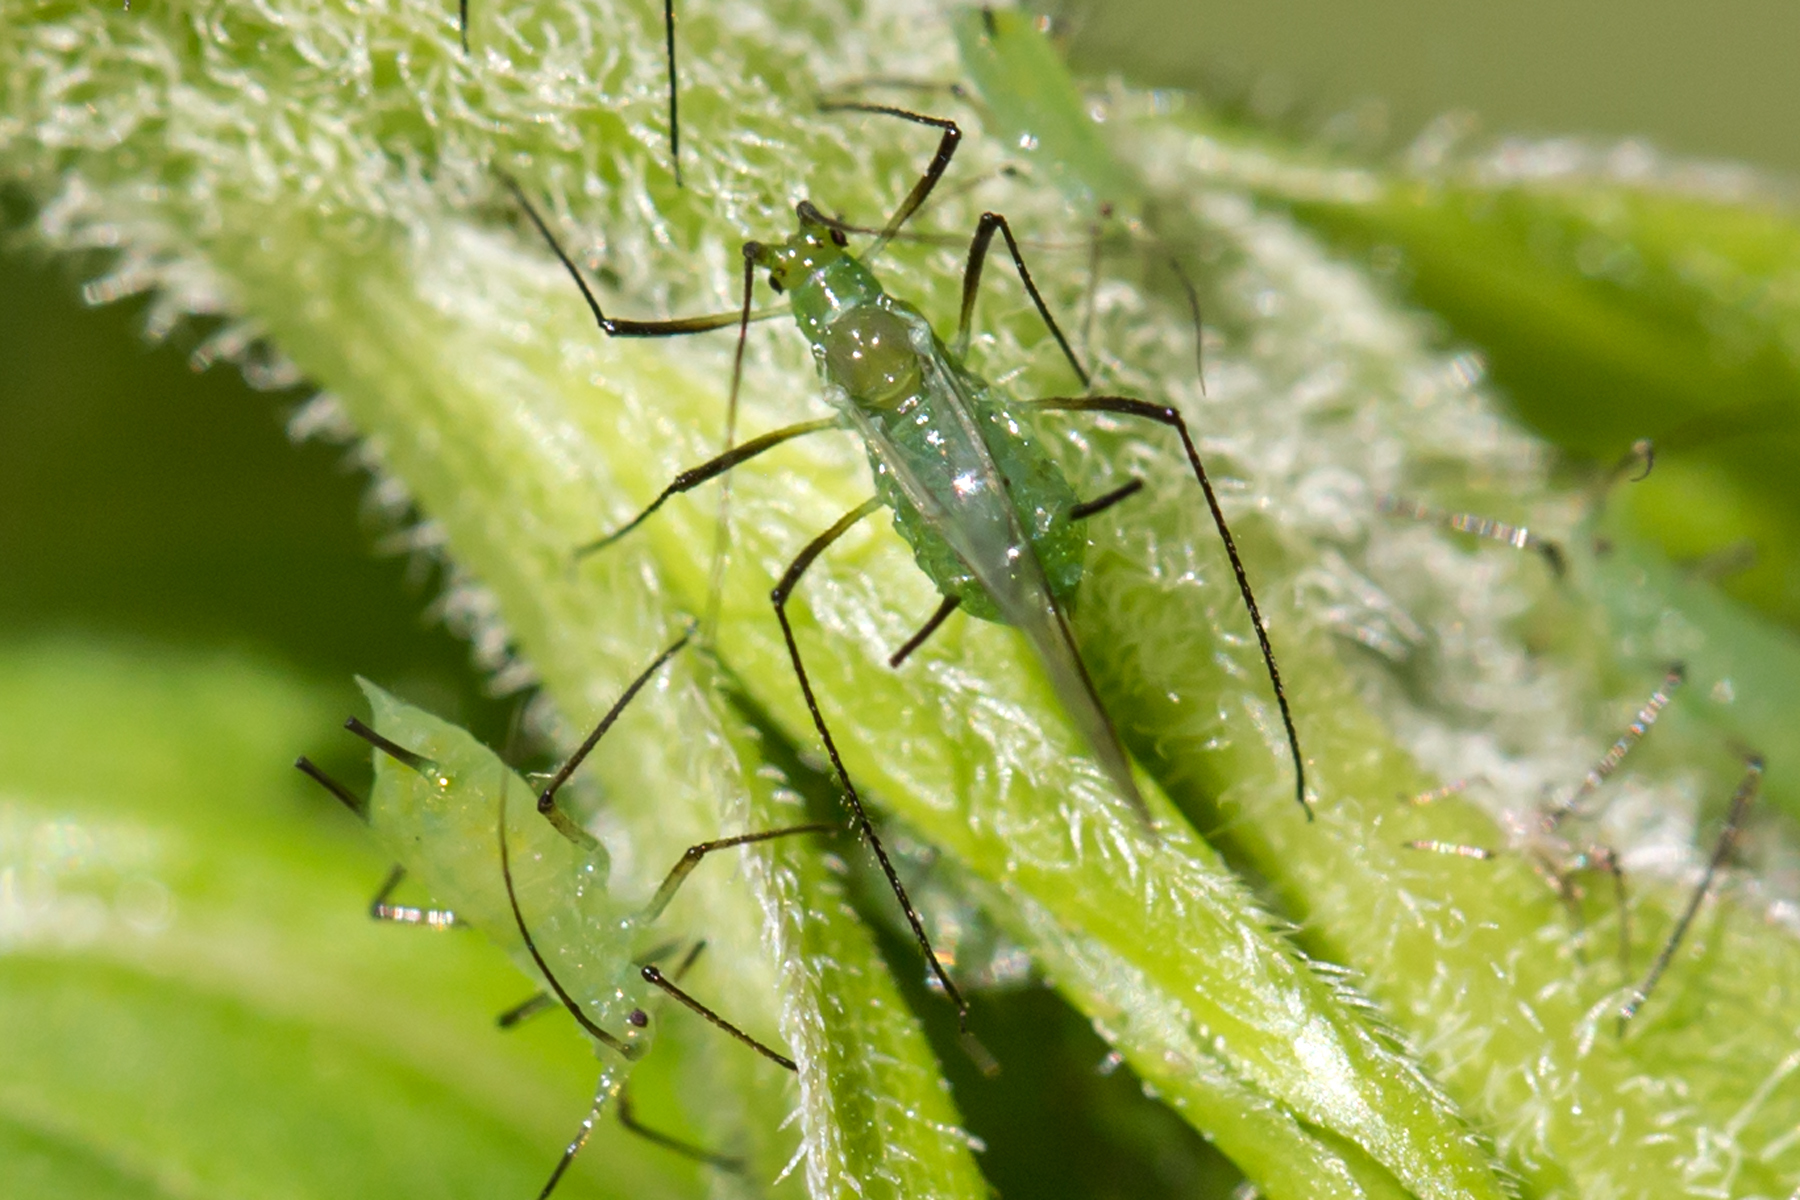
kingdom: Animalia
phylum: Arthropoda
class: Insecta
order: Hemiptera
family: Aphididae
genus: Uroleucon
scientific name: Uroleucon caligatum
